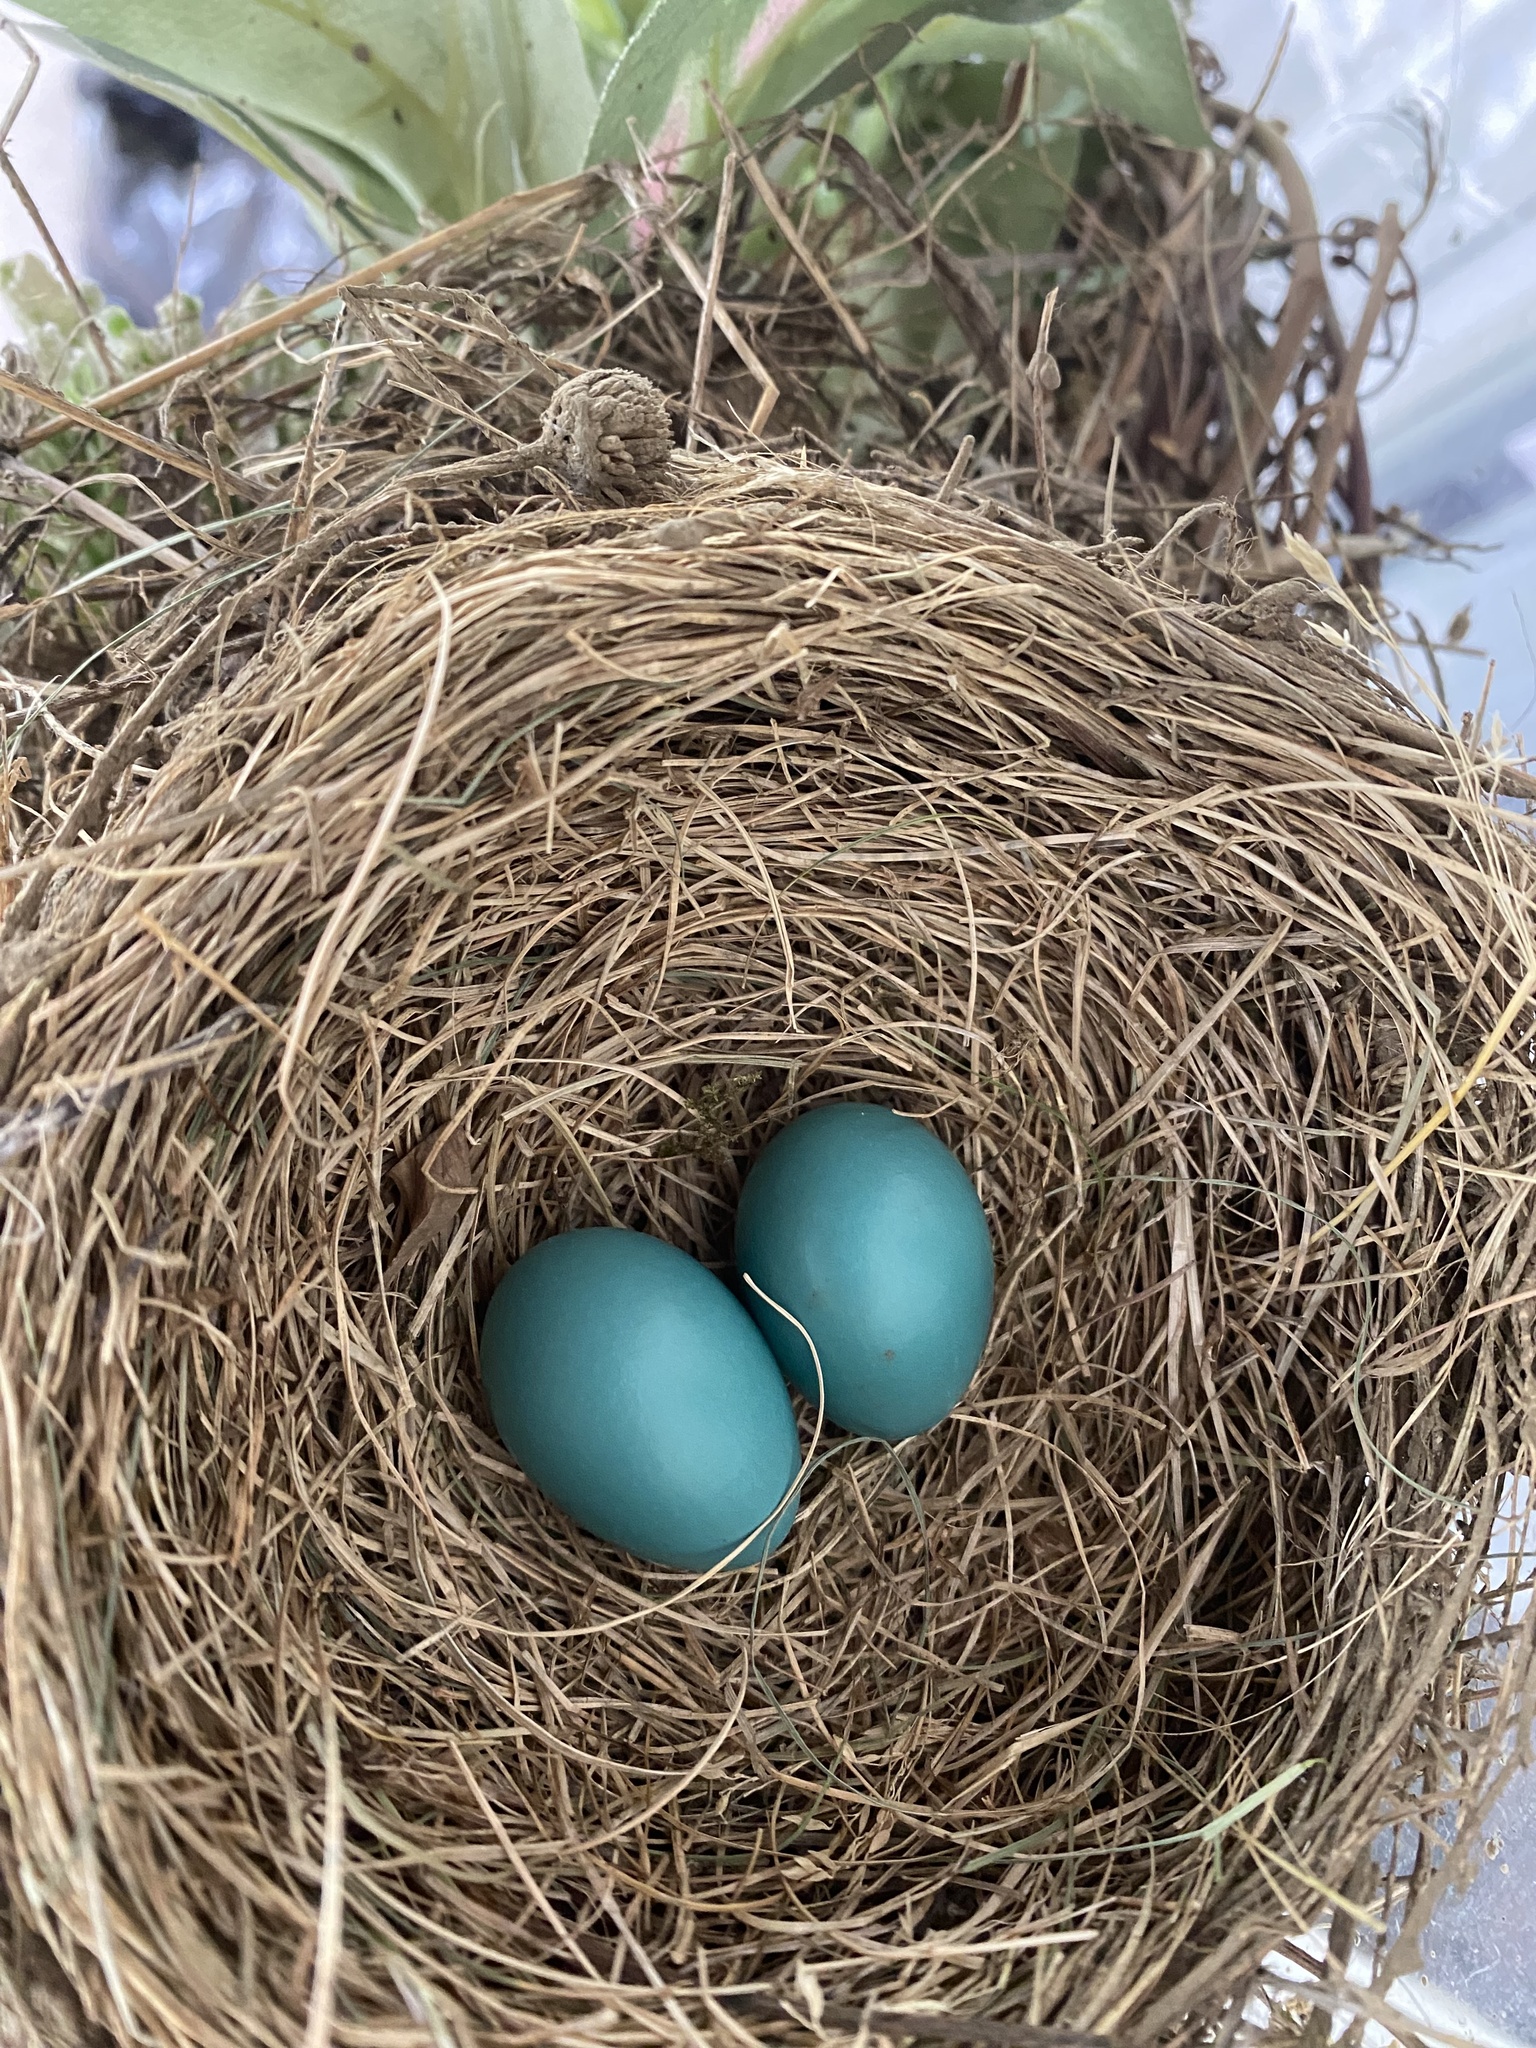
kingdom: Animalia
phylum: Chordata
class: Aves
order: Passeriformes
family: Turdidae
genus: Turdus
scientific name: Turdus migratorius
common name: American robin
